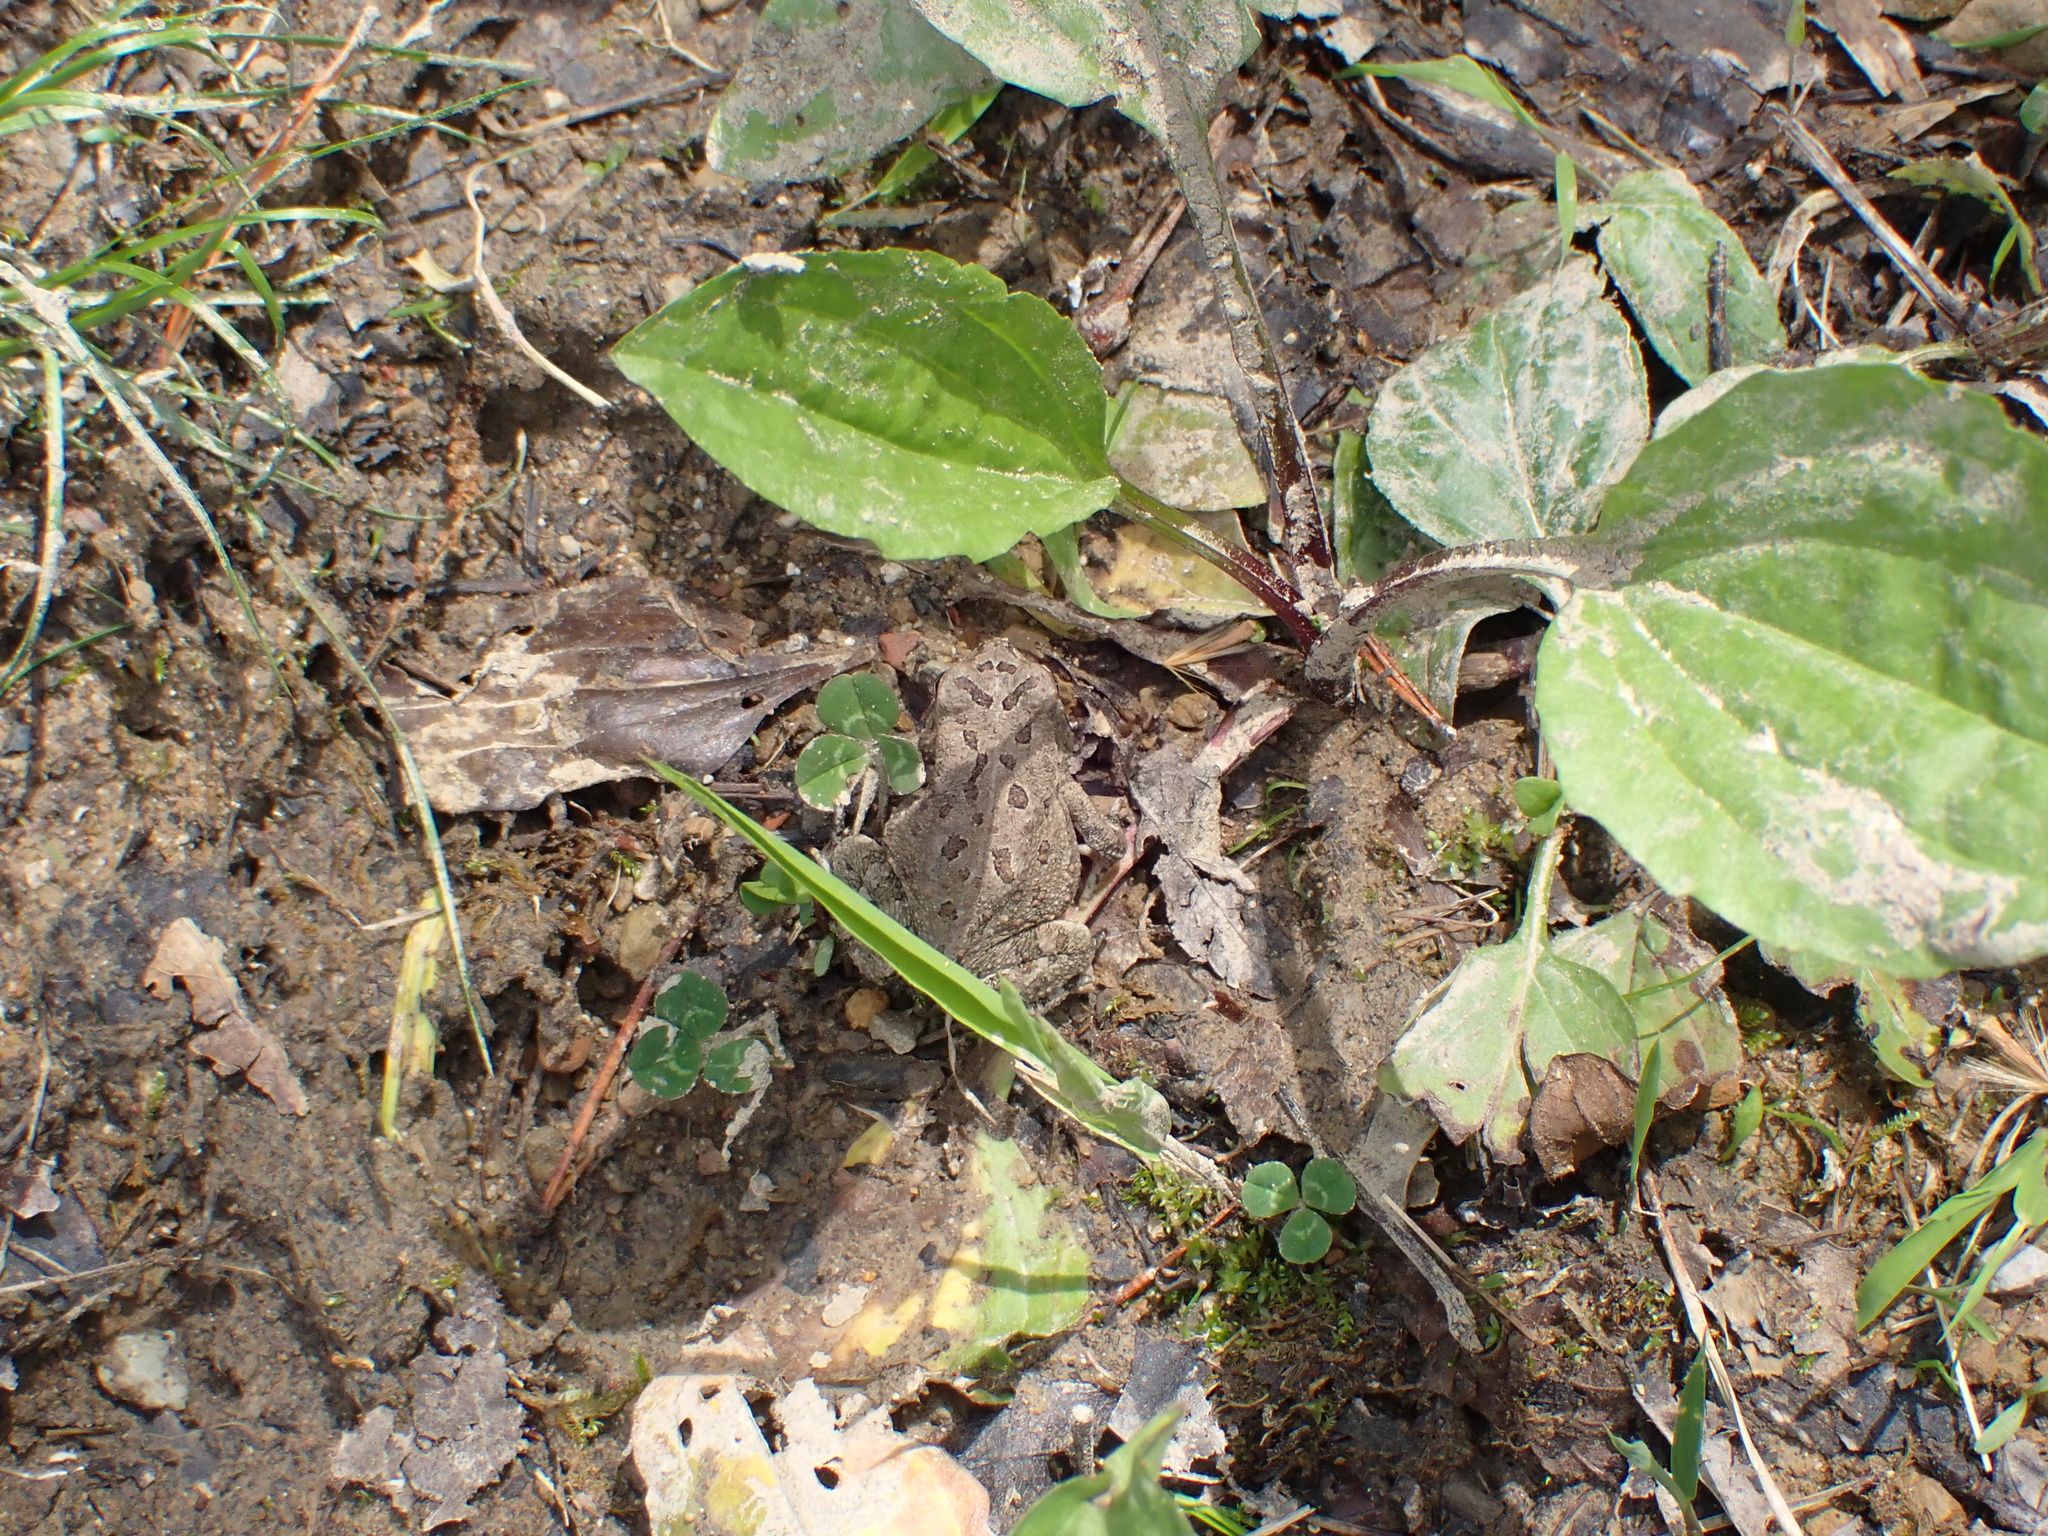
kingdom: Animalia
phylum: Chordata
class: Amphibia
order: Anura
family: Bufonidae
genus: Anaxyrus
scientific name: Anaxyrus fowleri
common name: Fowler's toad
